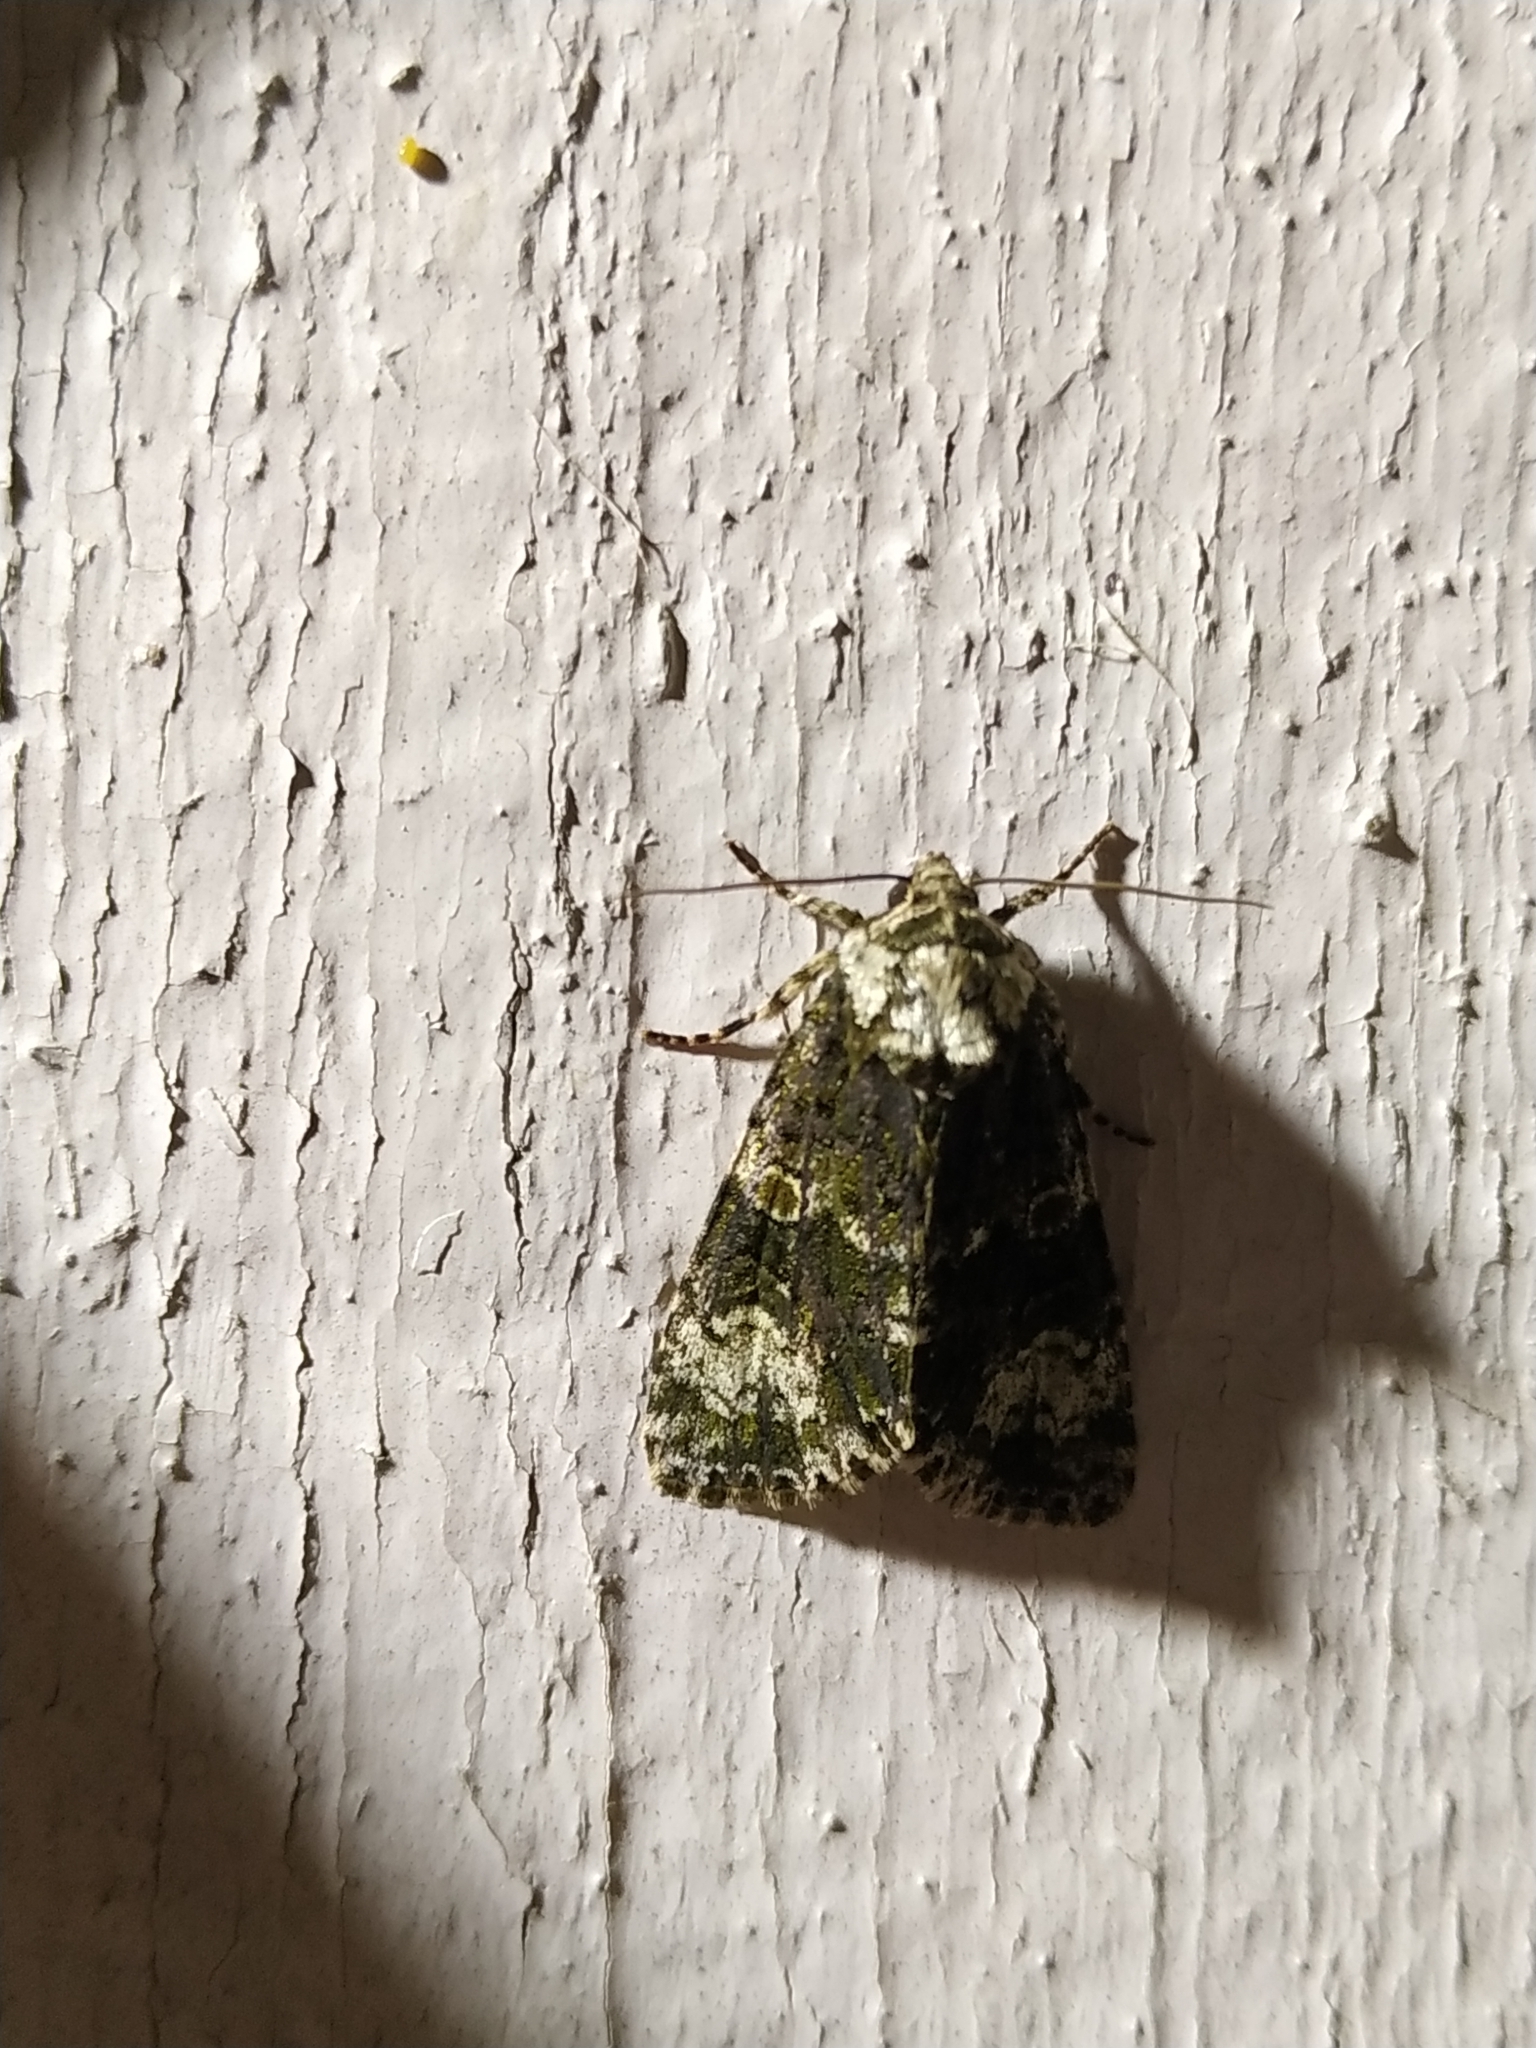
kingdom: Animalia
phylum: Arthropoda
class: Insecta
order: Lepidoptera
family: Noctuidae
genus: Craniophora
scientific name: Craniophora ligustri
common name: Coronet
